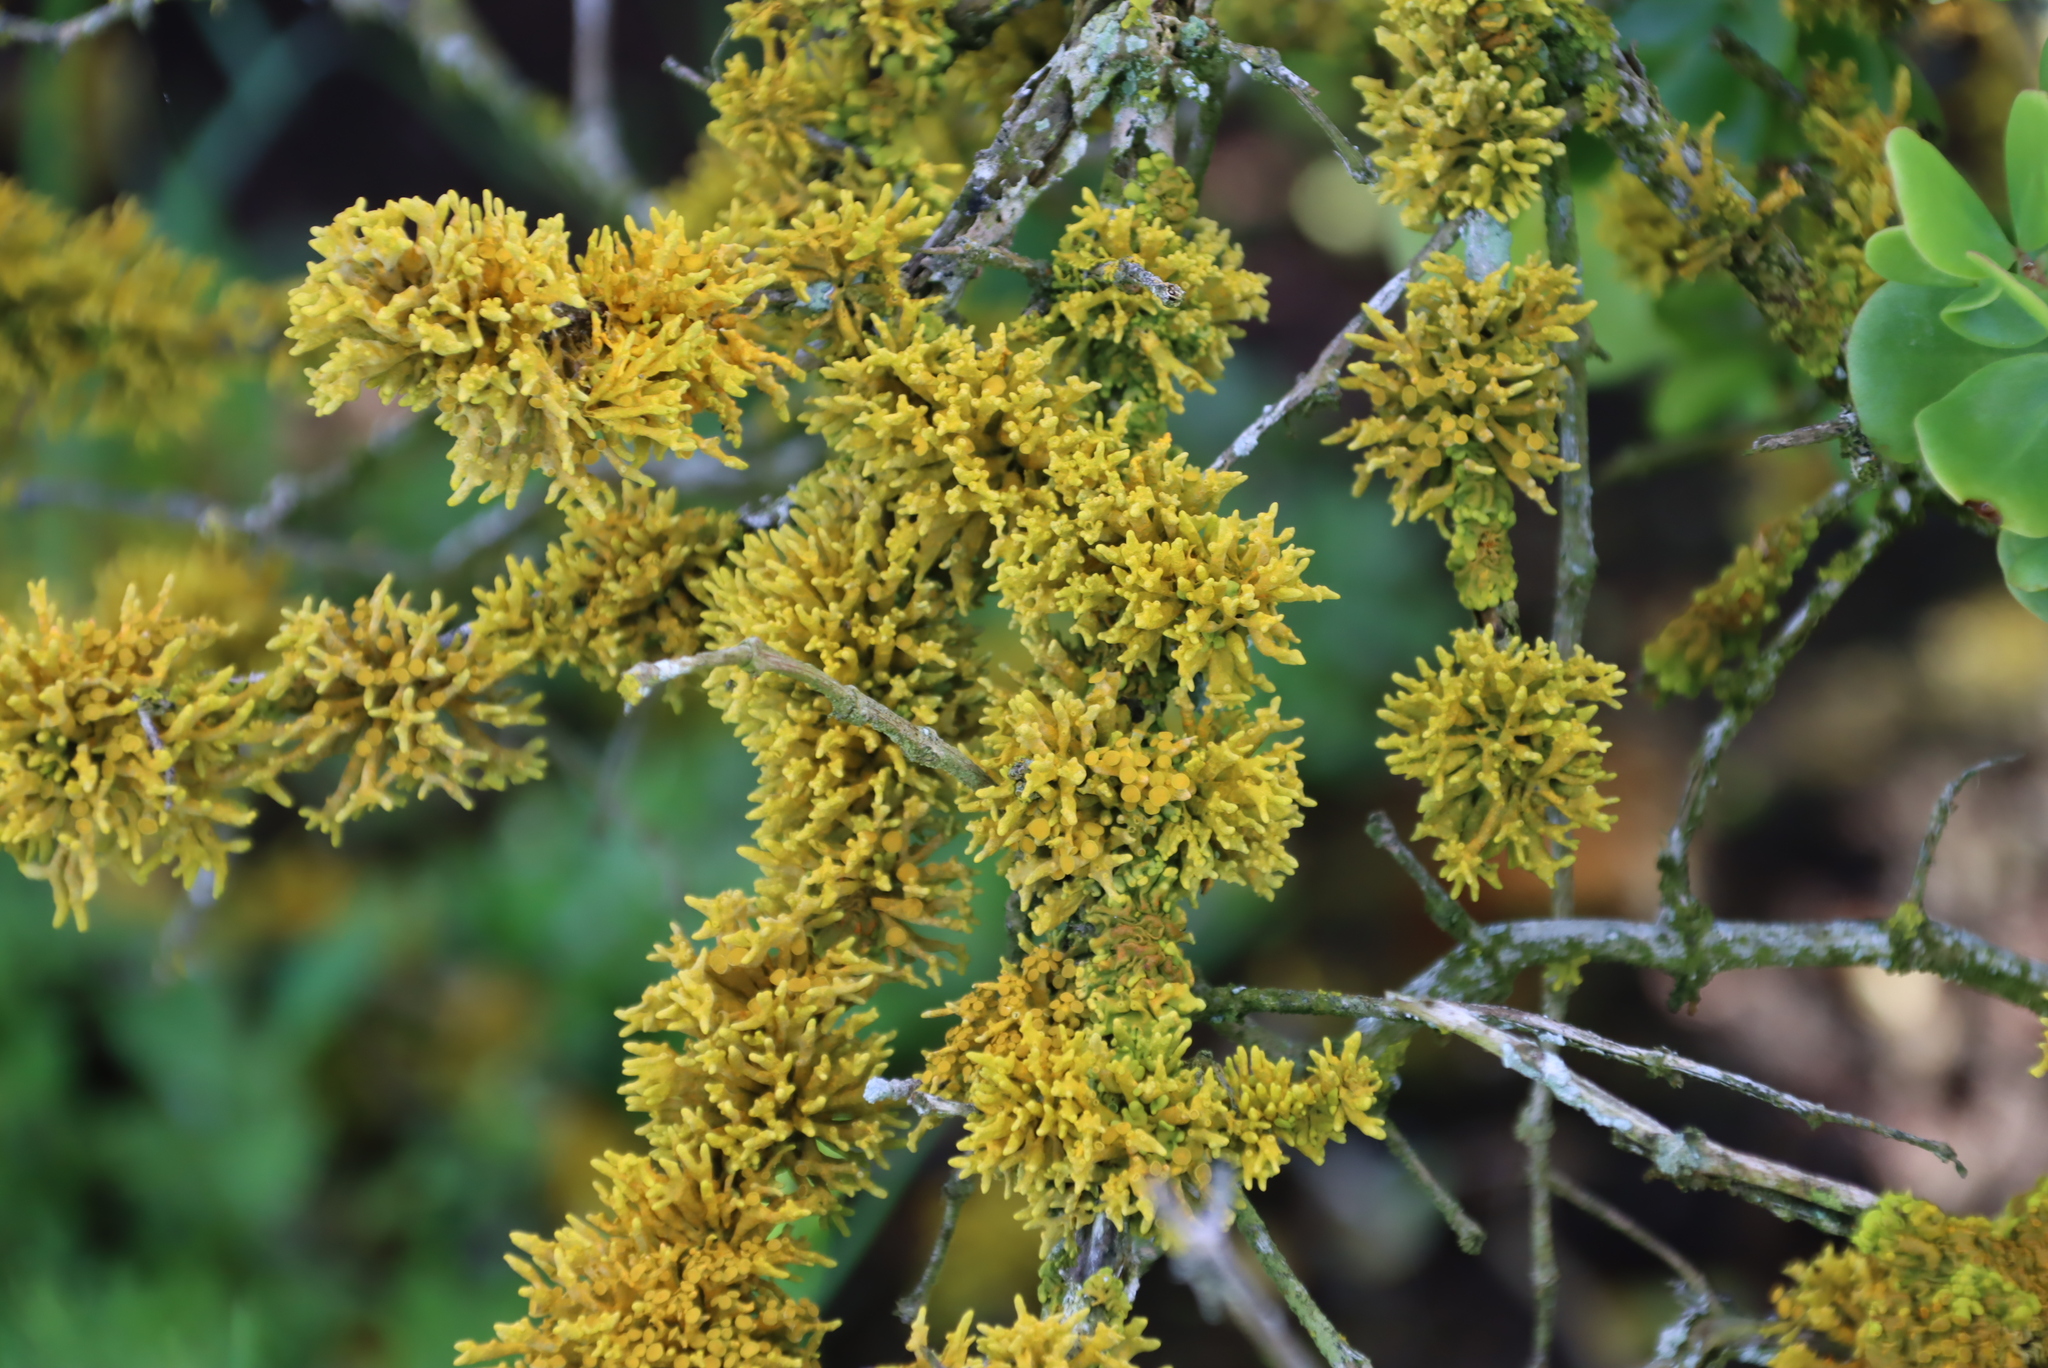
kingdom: Fungi
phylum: Ascomycota
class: Lecanoromycetes
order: Teloschistales
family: Teloschistaceae
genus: Dufourea
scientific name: Dufourea flammea
